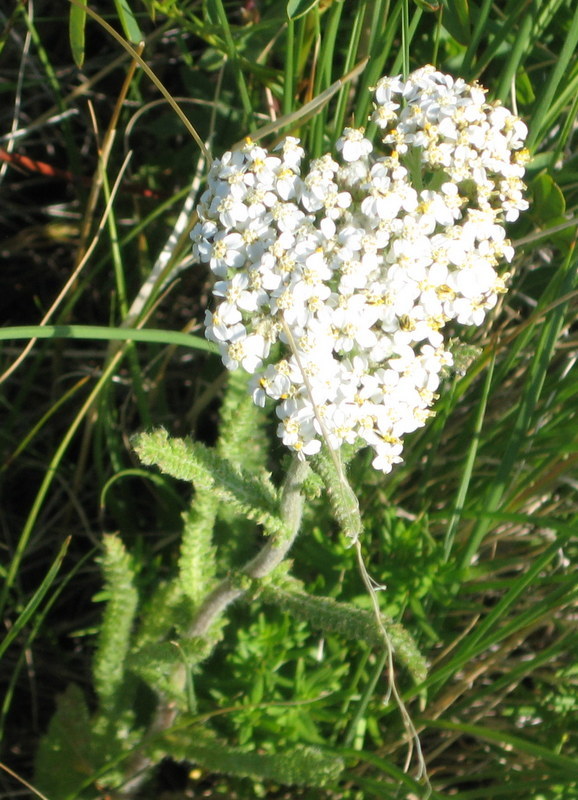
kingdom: Plantae
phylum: Tracheophyta
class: Magnoliopsida
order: Asterales
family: Asteraceae
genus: Achillea
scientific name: Achillea millefolium
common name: Yarrow
